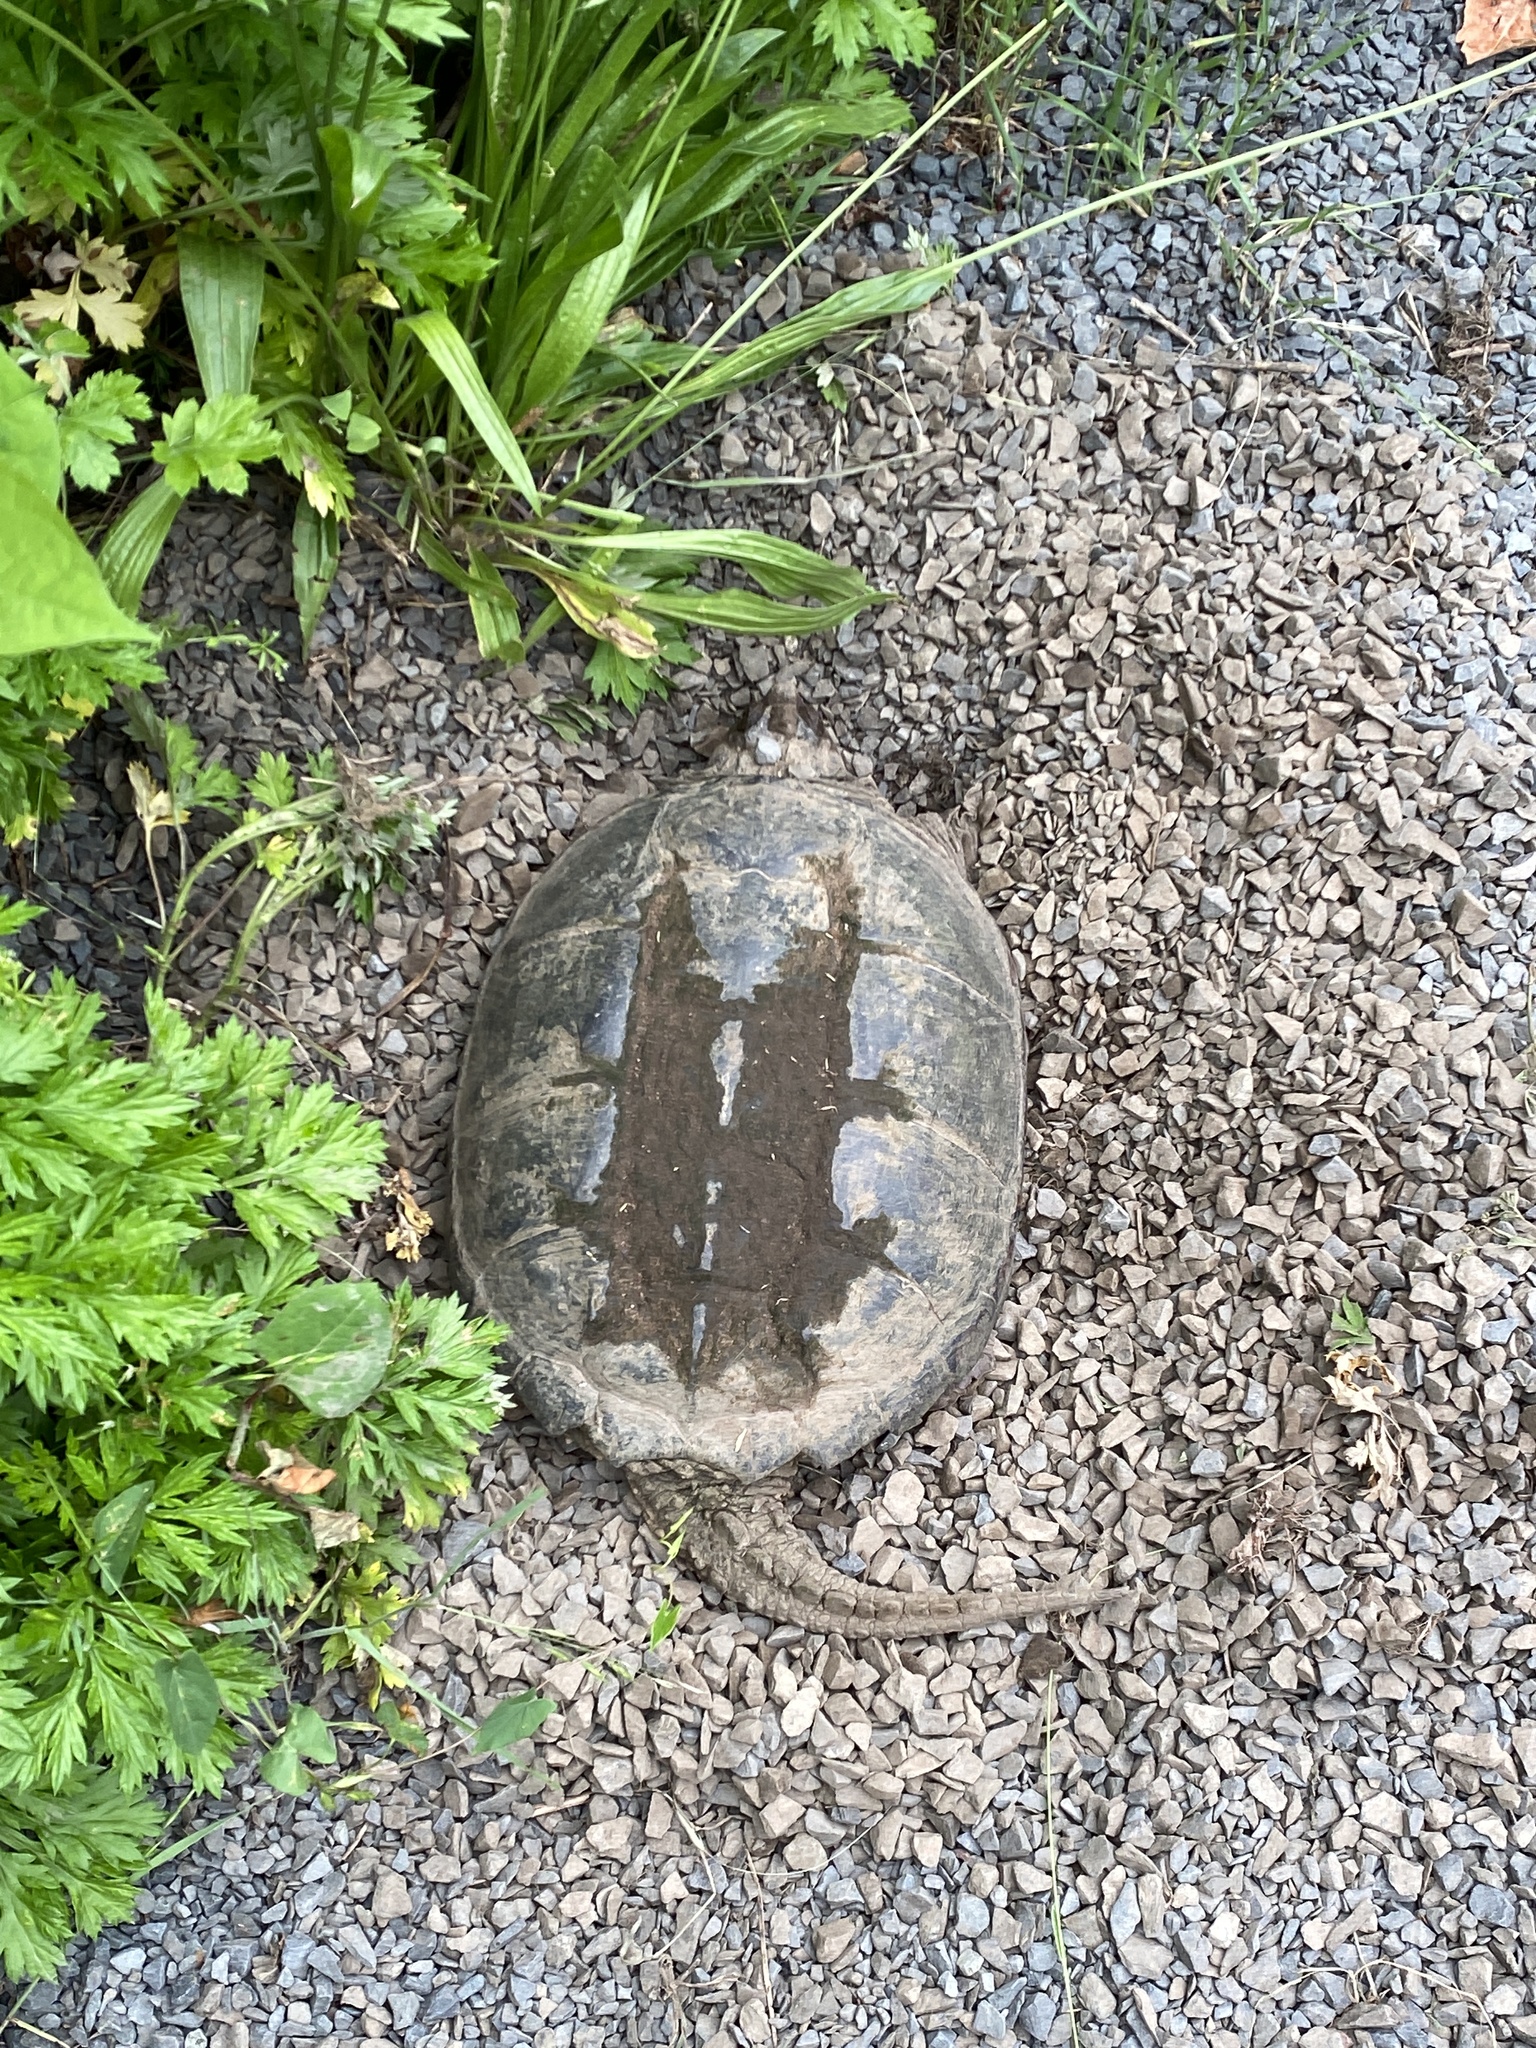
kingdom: Animalia
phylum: Chordata
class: Testudines
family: Chelydridae
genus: Chelydra
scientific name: Chelydra serpentina
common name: Common snapping turtle
